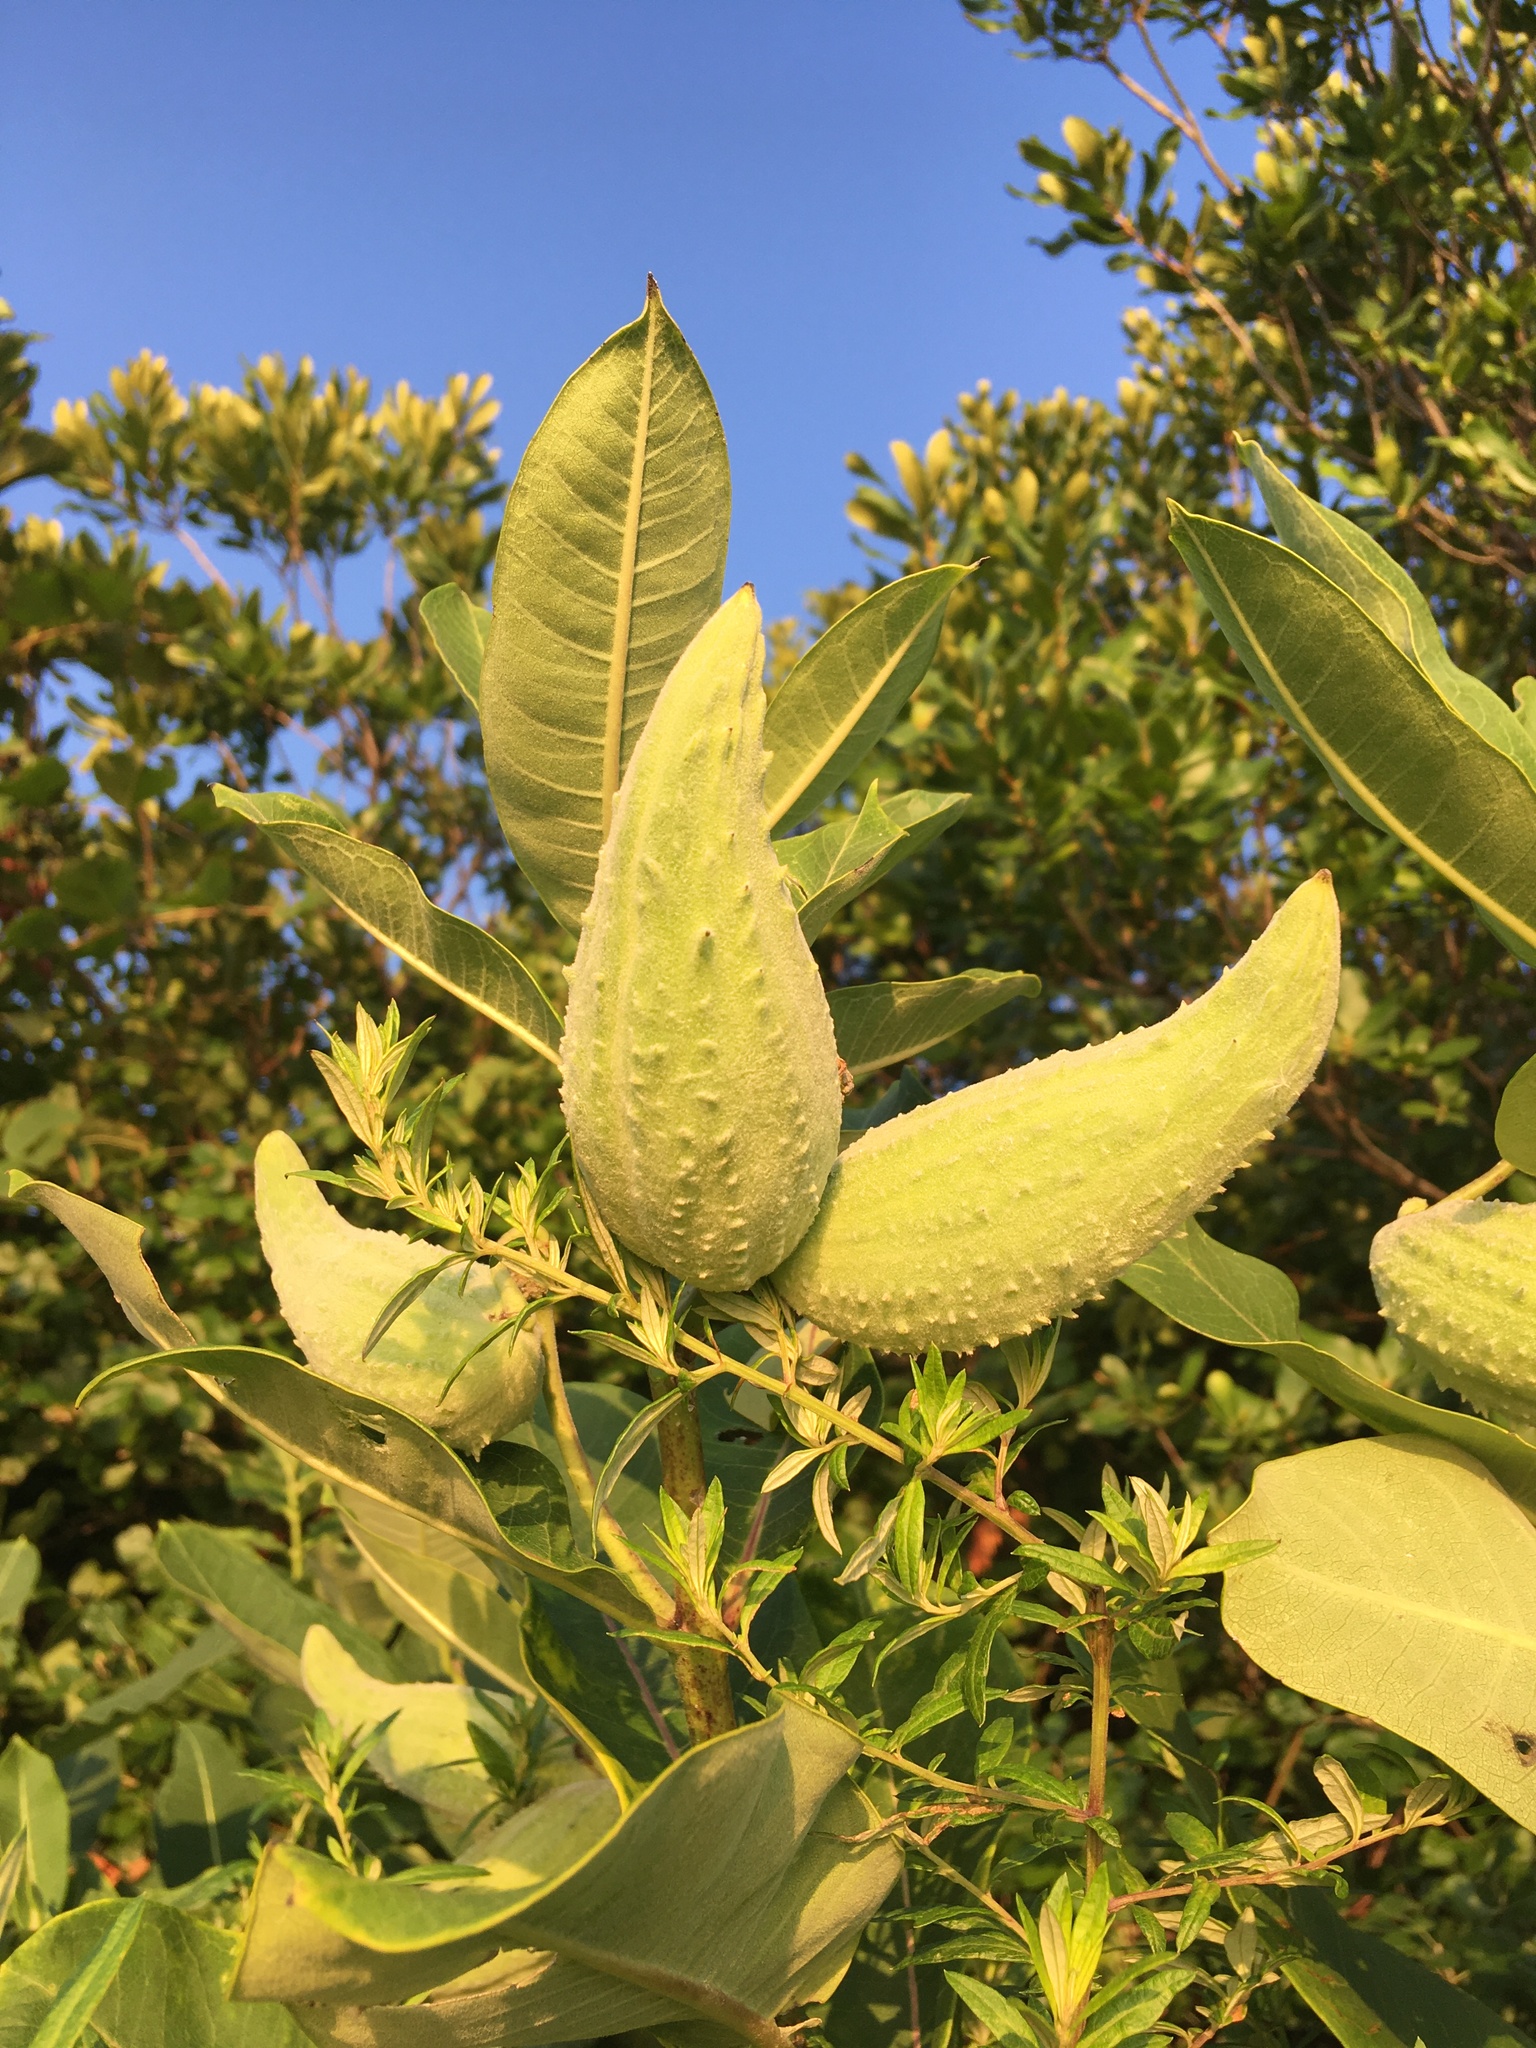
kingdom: Plantae
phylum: Tracheophyta
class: Magnoliopsida
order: Gentianales
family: Apocynaceae
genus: Asclepias
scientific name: Asclepias syriaca
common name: Common milkweed
